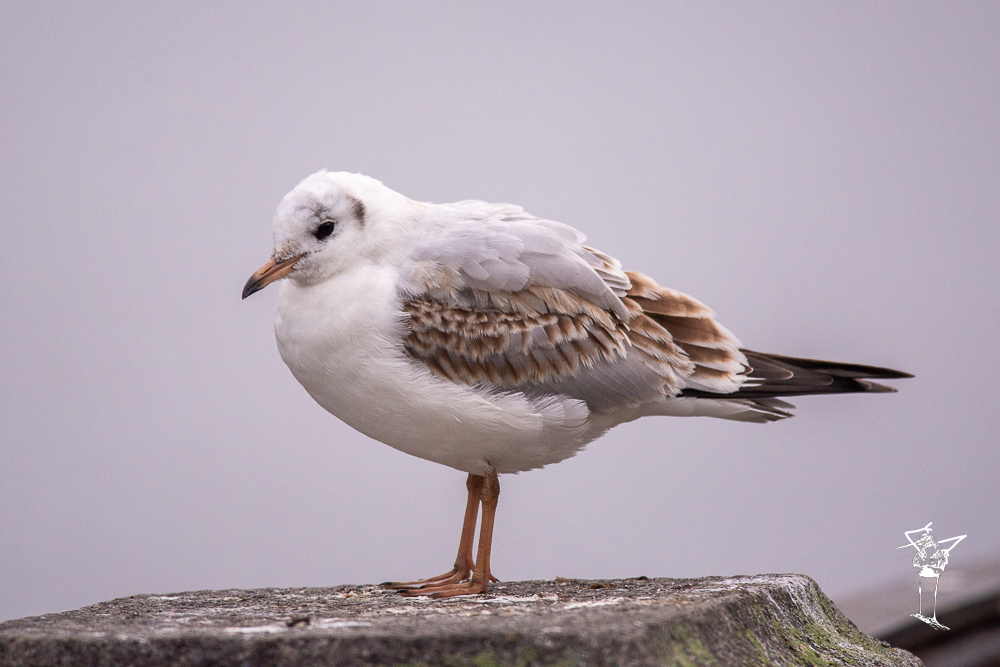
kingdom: Animalia
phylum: Chordata
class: Aves
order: Charadriiformes
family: Laridae
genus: Chroicocephalus
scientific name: Chroicocephalus ridibundus
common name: Black-headed gull
